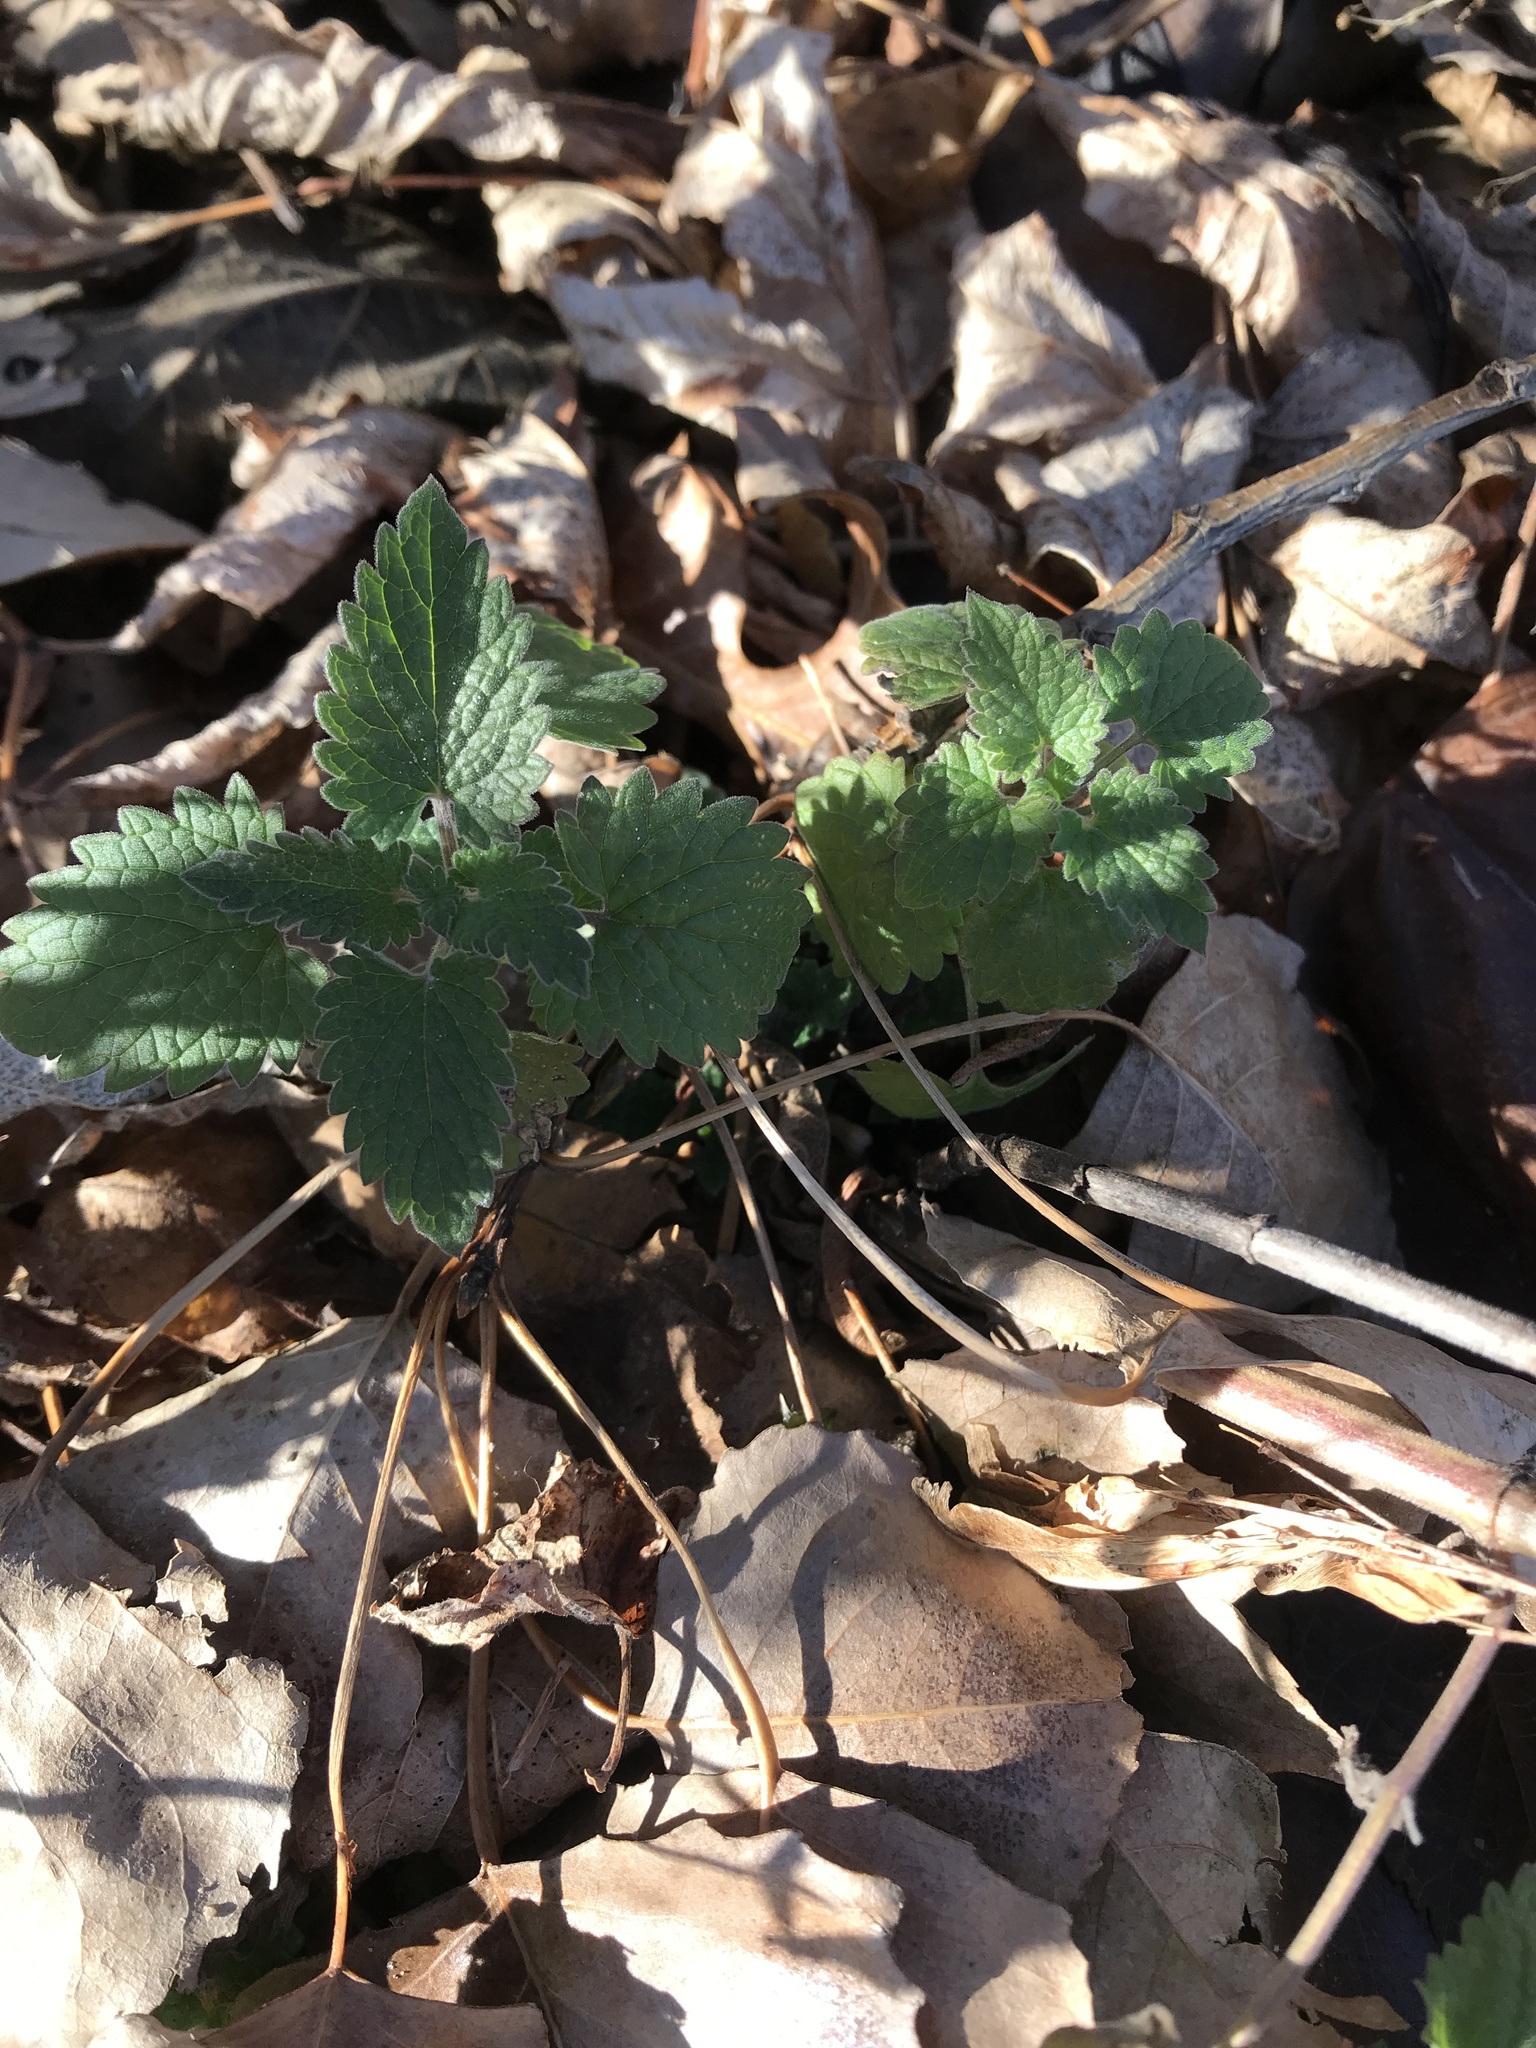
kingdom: Plantae
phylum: Tracheophyta
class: Magnoliopsida
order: Lamiales
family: Lamiaceae
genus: Nepeta
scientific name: Nepeta cataria
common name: Catnip
